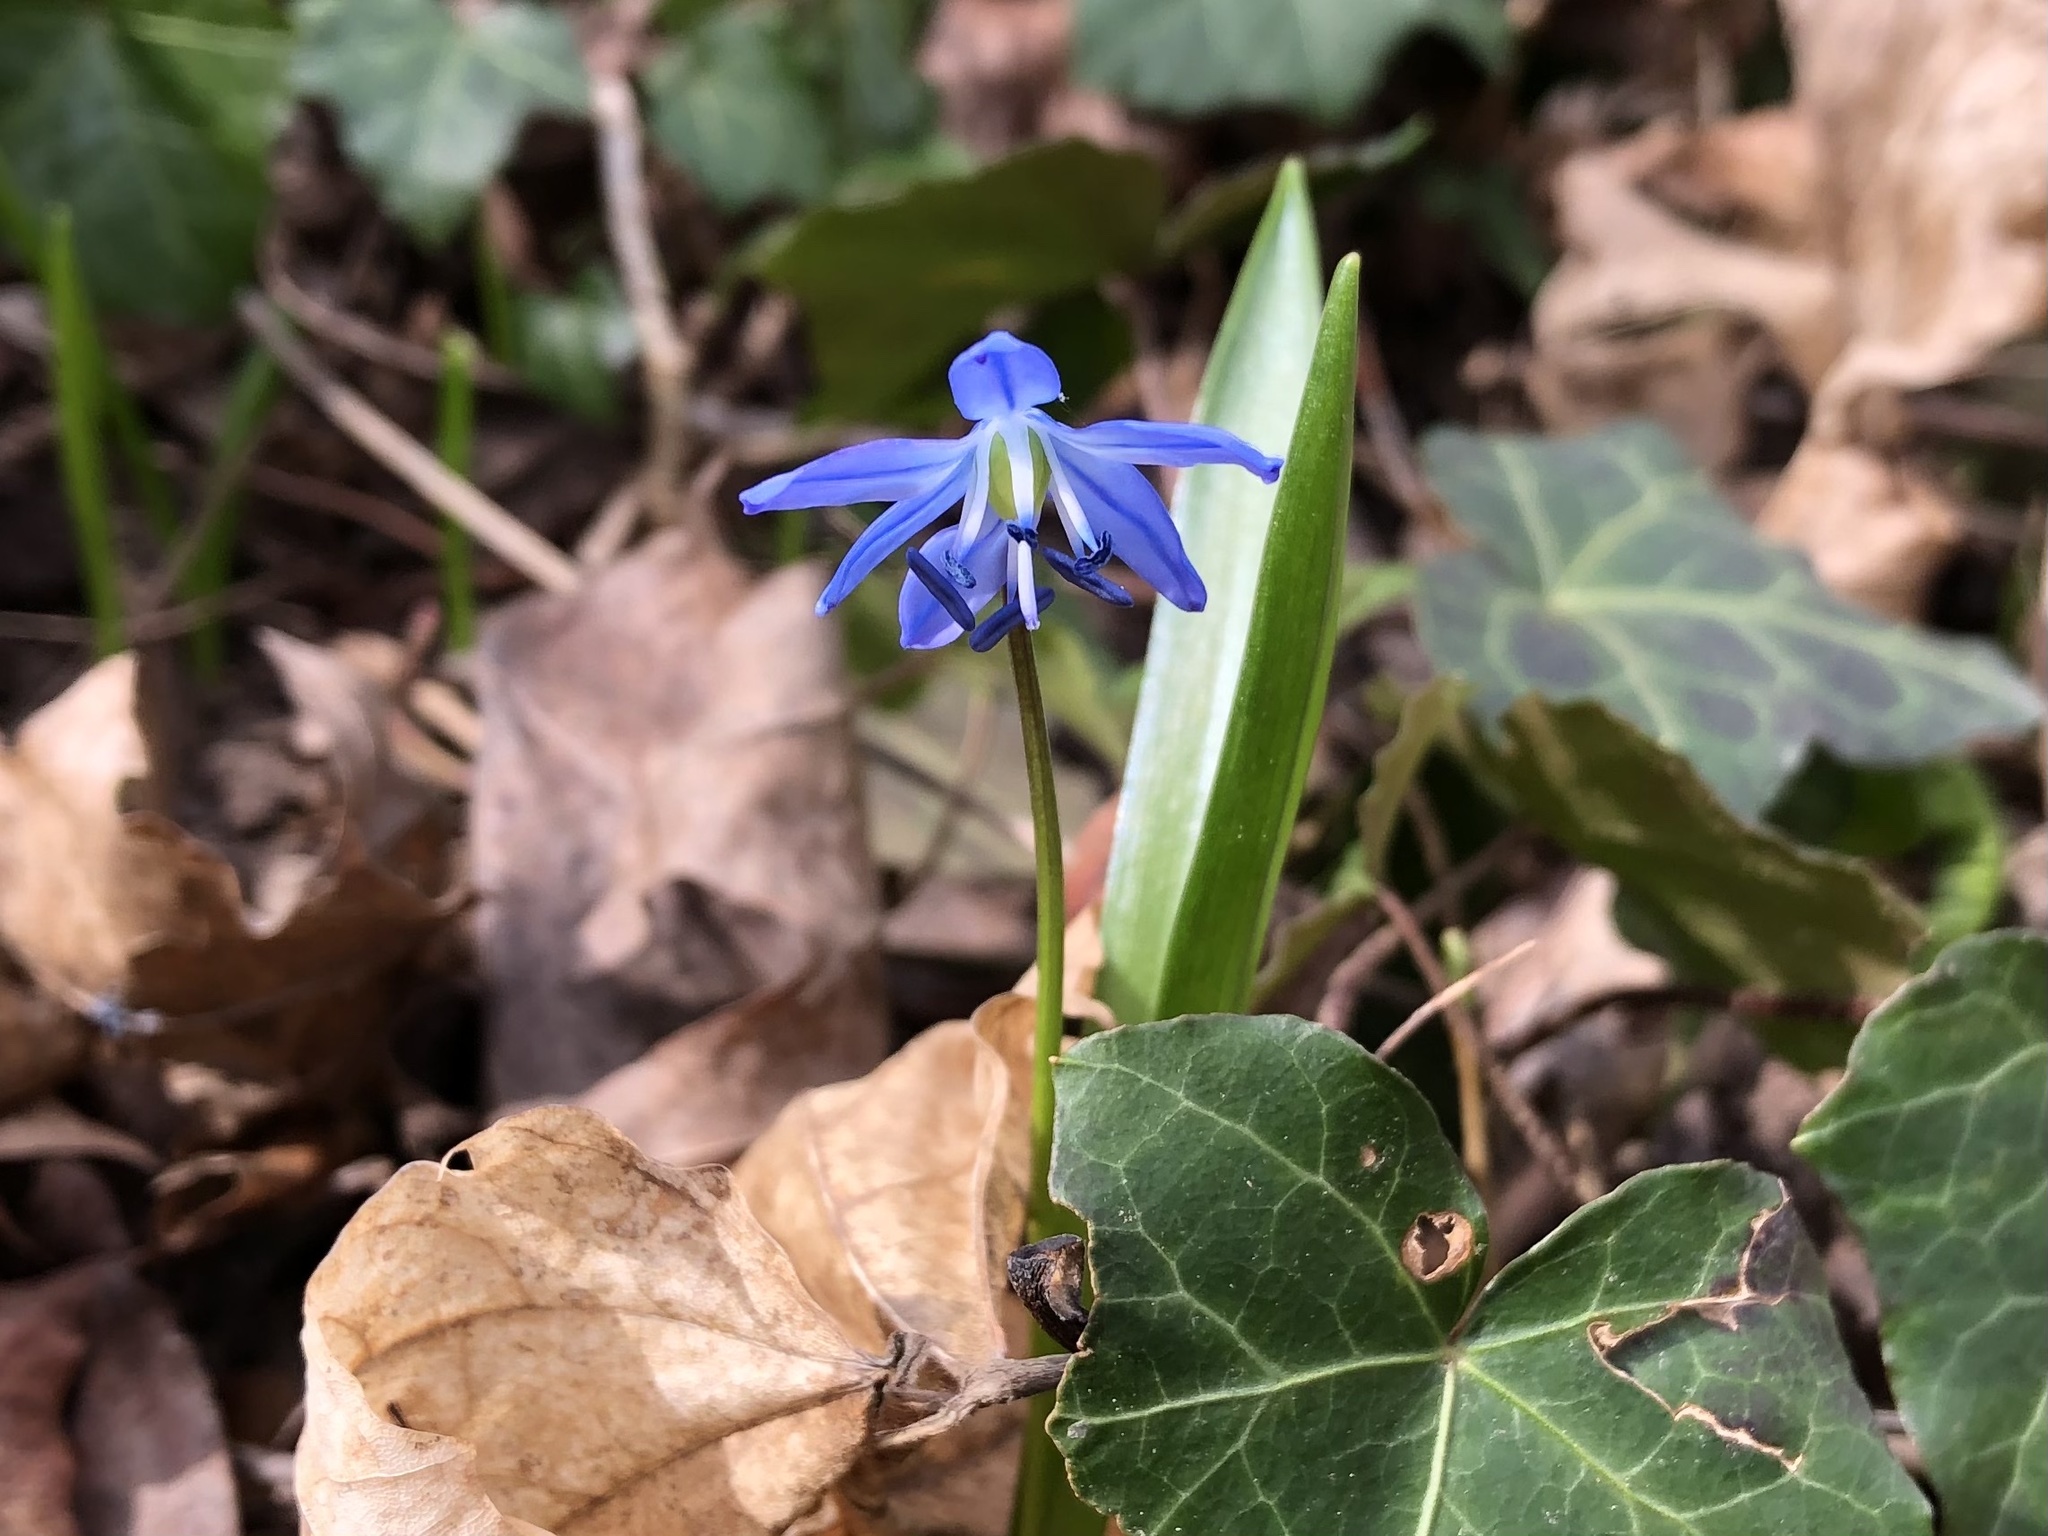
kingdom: Plantae
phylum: Tracheophyta
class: Liliopsida
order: Asparagales
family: Asparagaceae
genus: Scilla
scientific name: Scilla siberica
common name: Siberian squill
